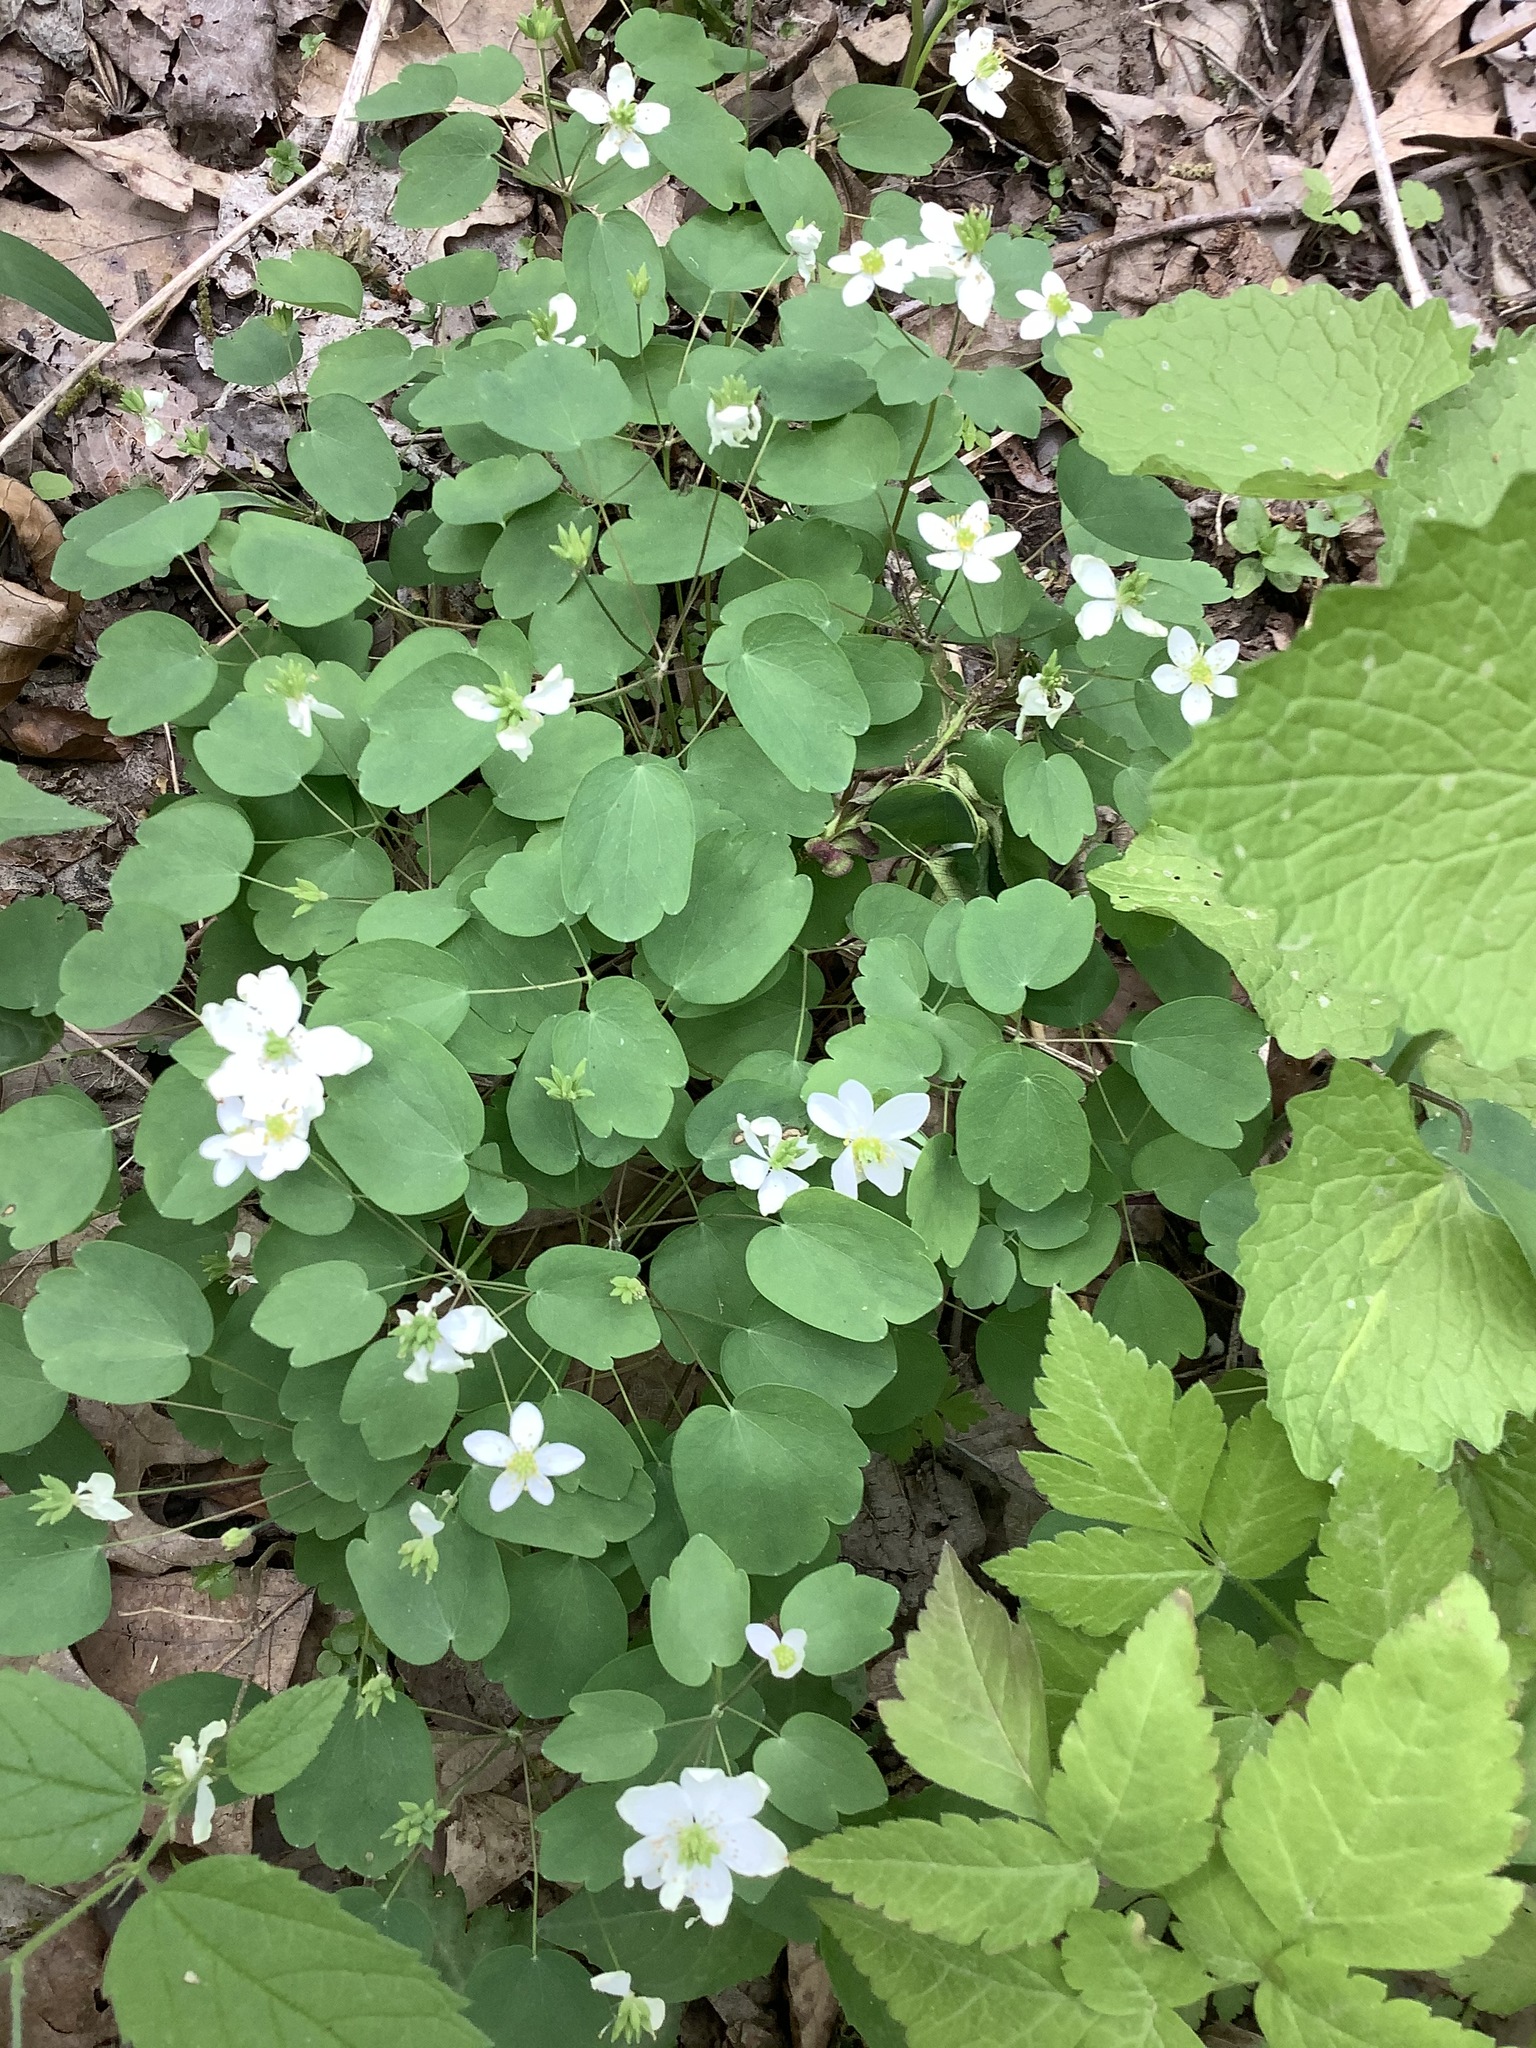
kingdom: Plantae
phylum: Tracheophyta
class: Magnoliopsida
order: Ranunculales
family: Ranunculaceae
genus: Thalictrum
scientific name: Thalictrum thalictroides
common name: Rue-anemone
